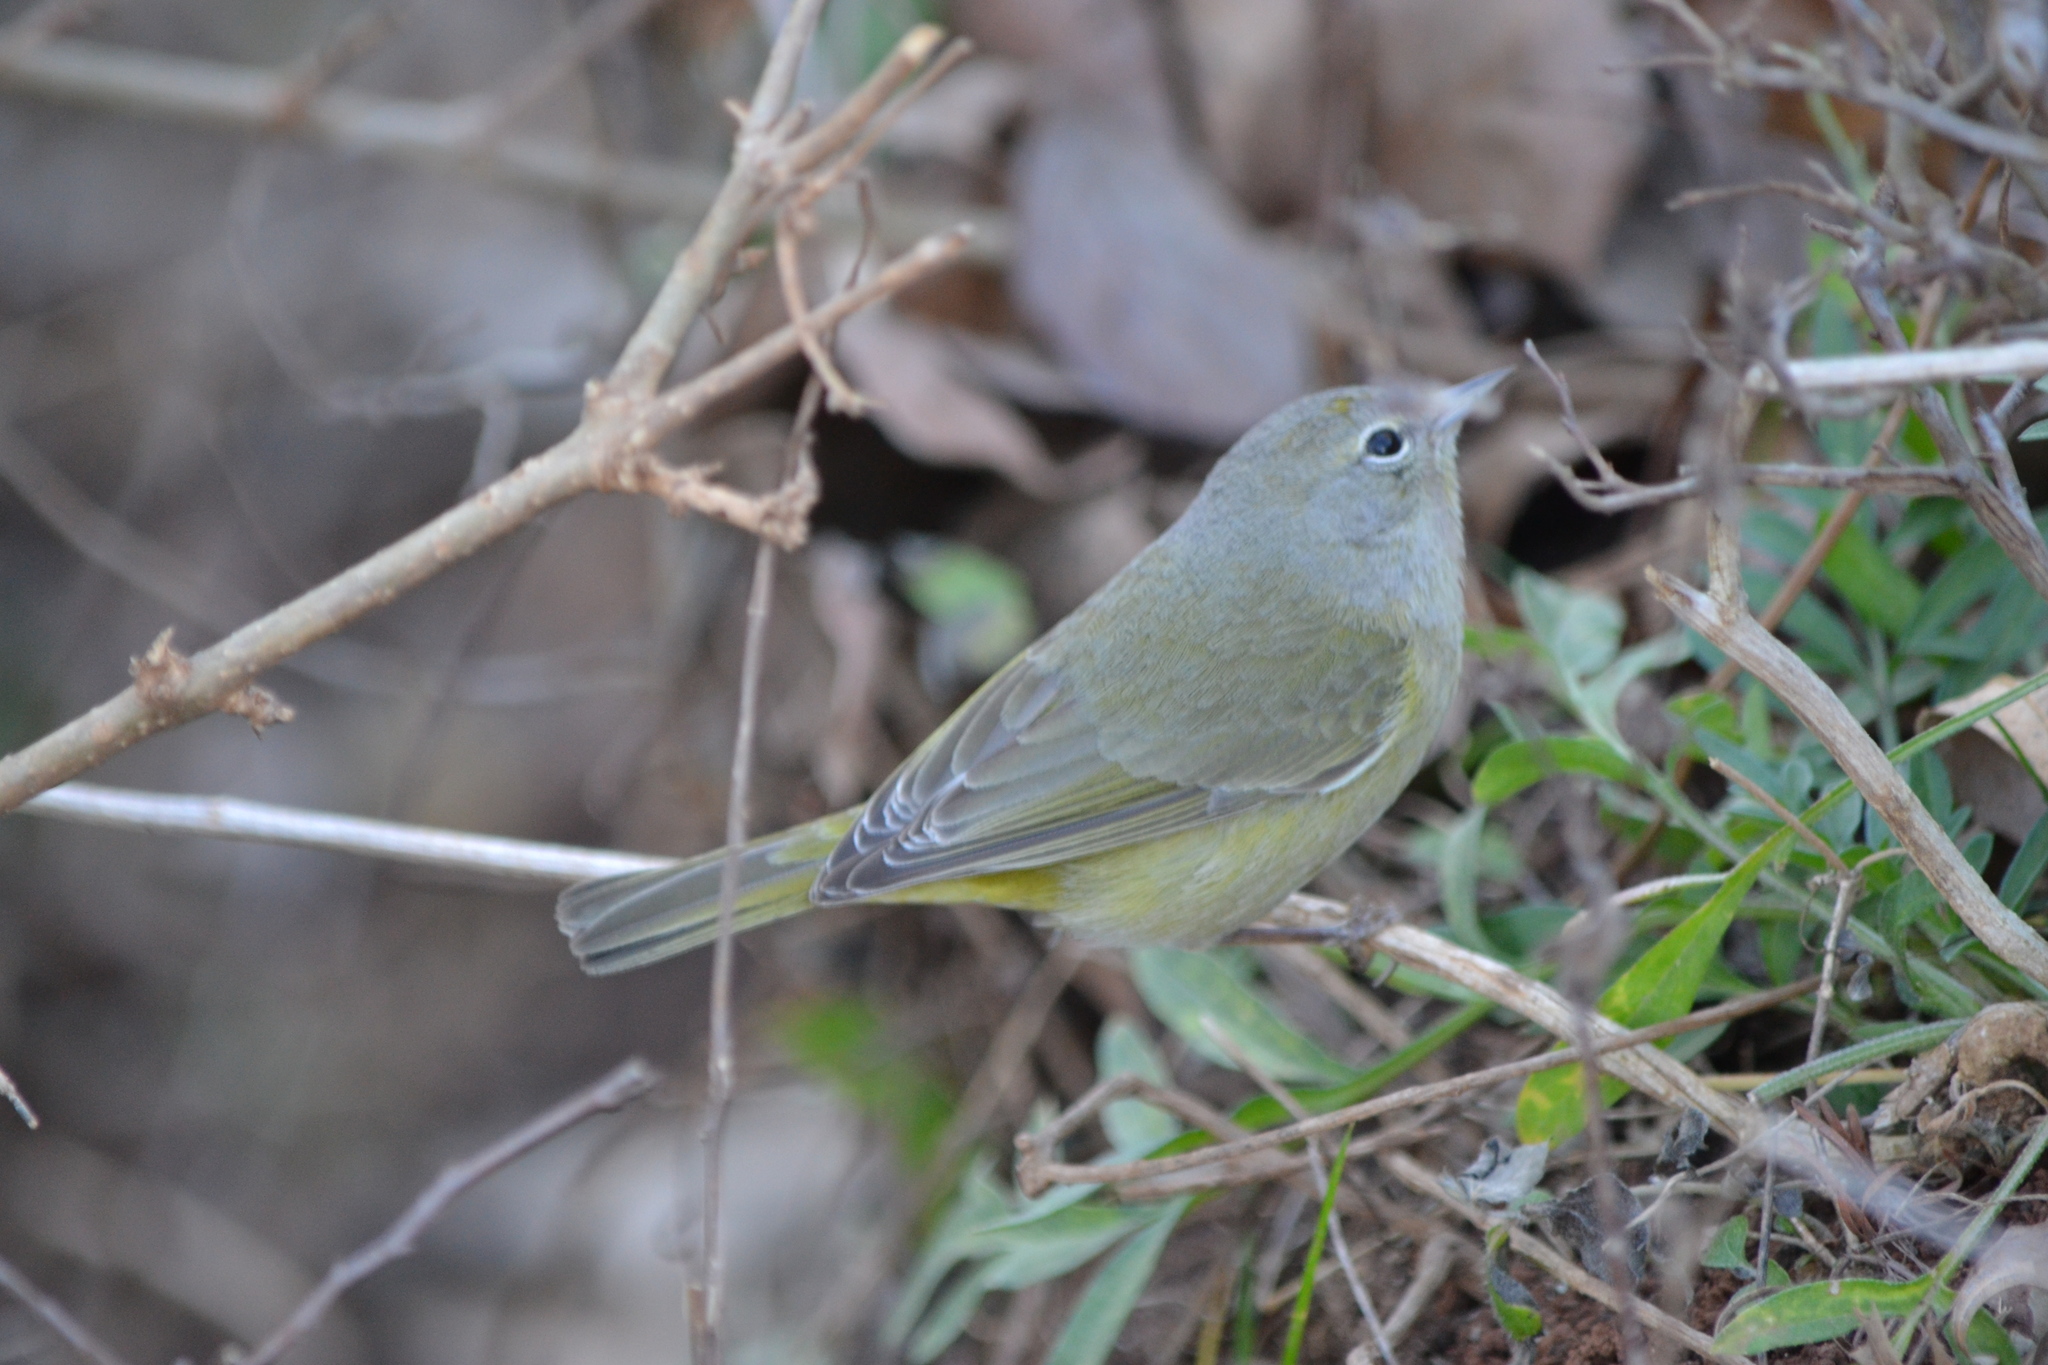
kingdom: Animalia
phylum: Chordata
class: Aves
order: Passeriformes
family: Parulidae
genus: Leiothlypis
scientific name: Leiothlypis celata
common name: Orange-crowned warbler
